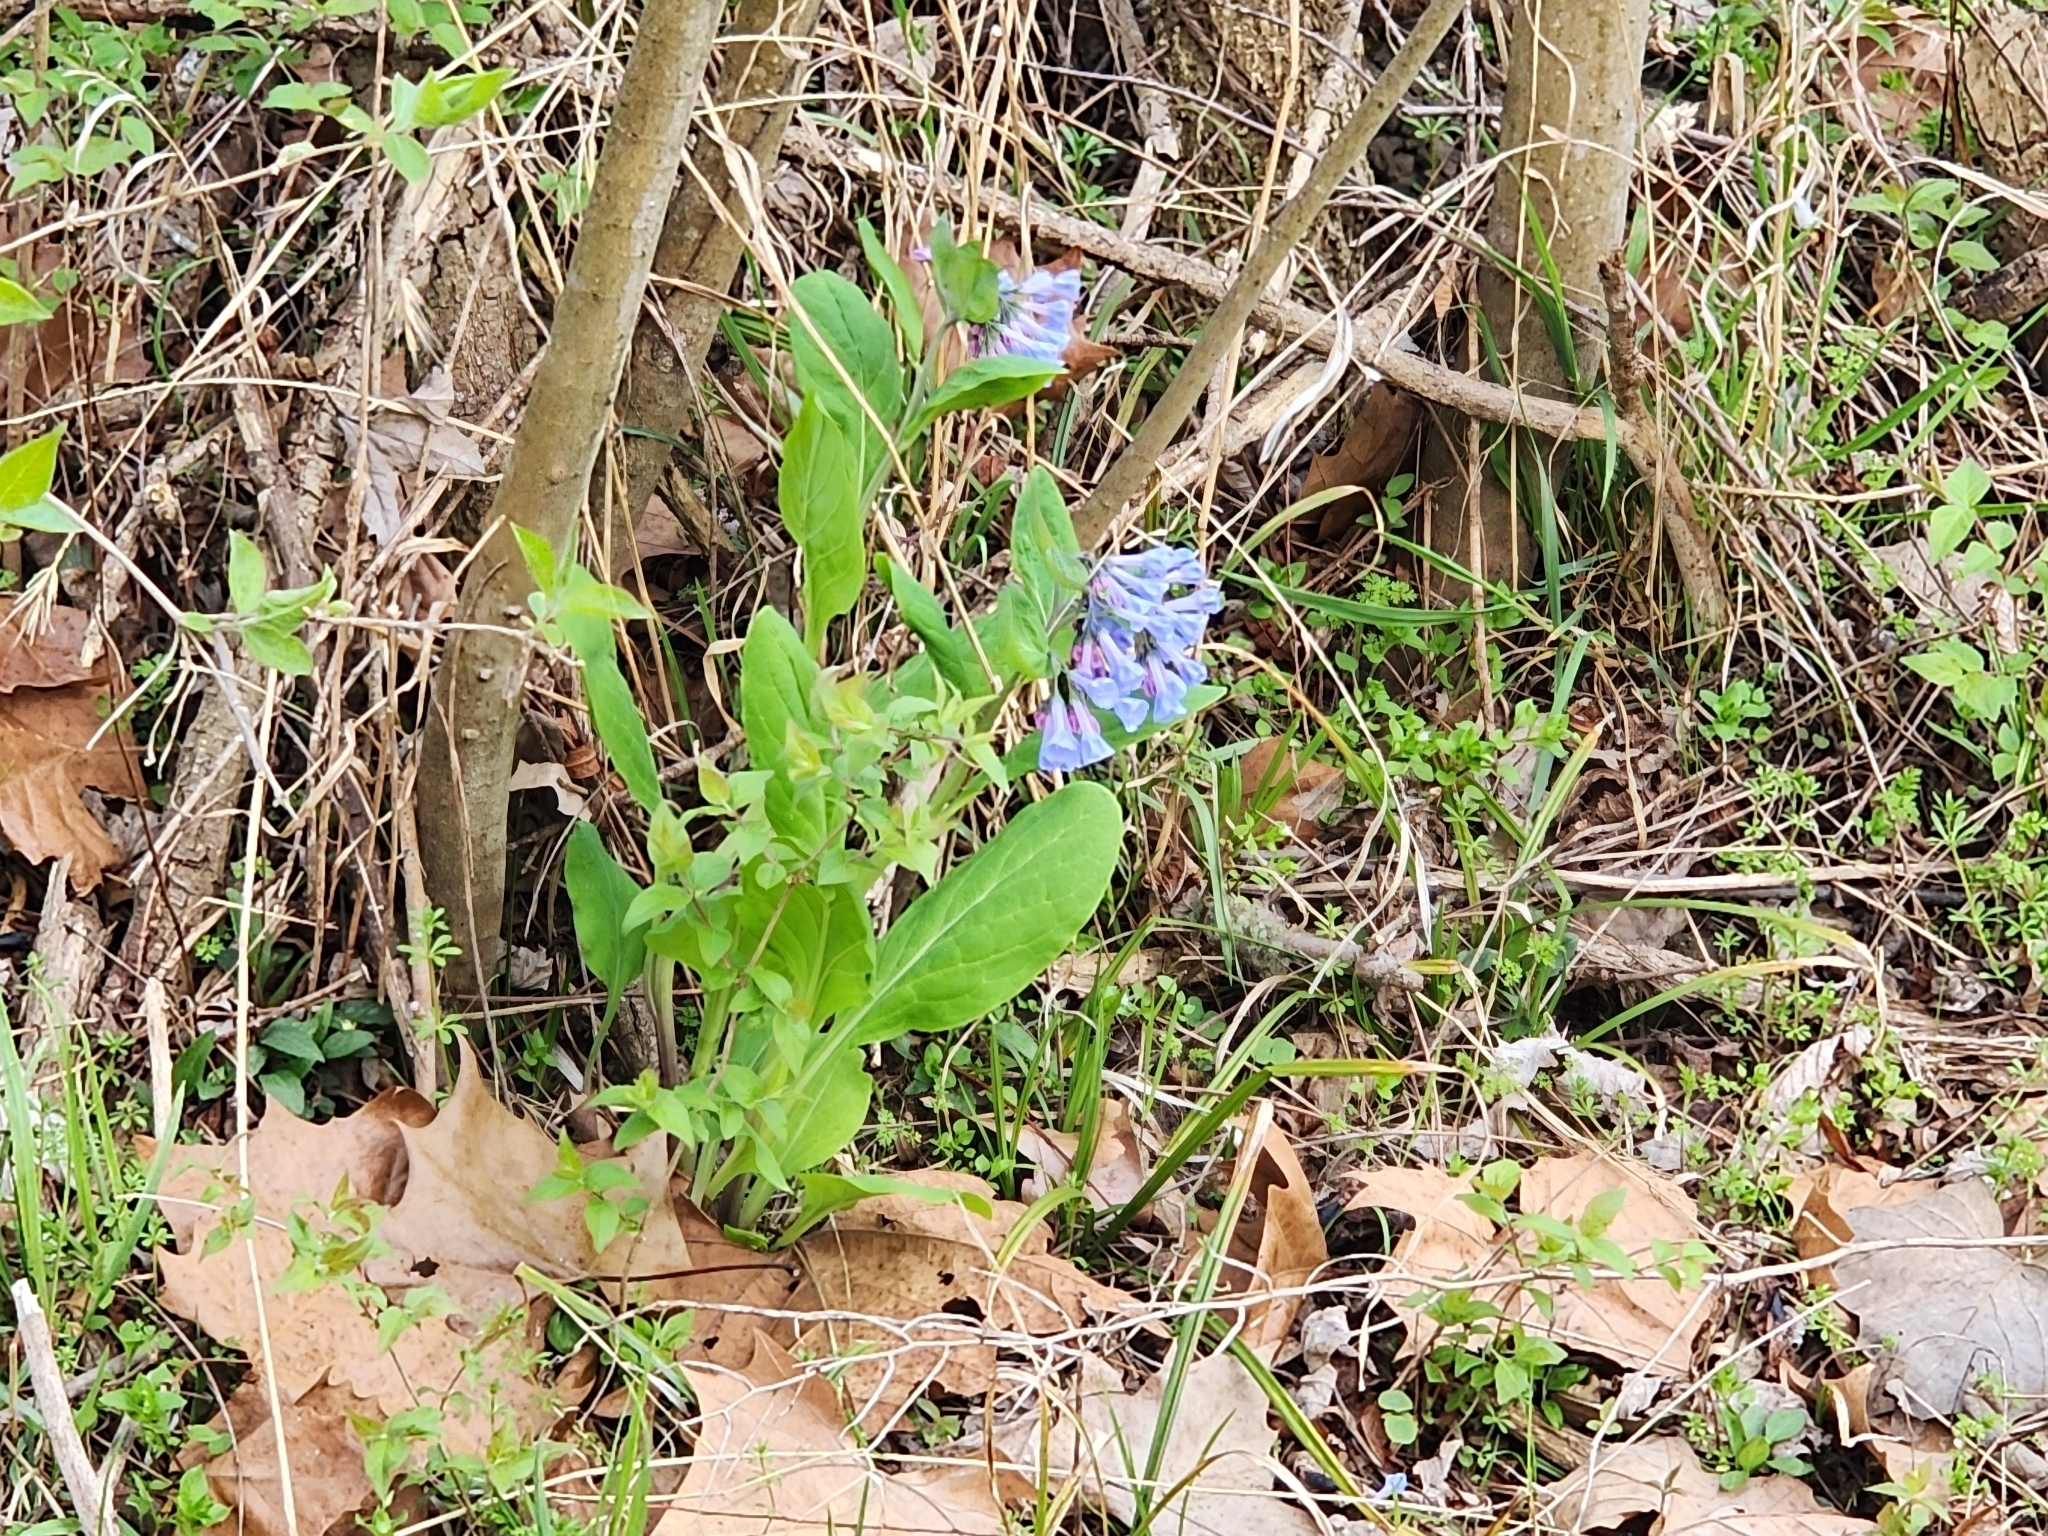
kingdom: Plantae
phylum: Tracheophyta
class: Magnoliopsida
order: Boraginales
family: Boraginaceae
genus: Mertensia
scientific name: Mertensia virginica
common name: Virginia bluebells
